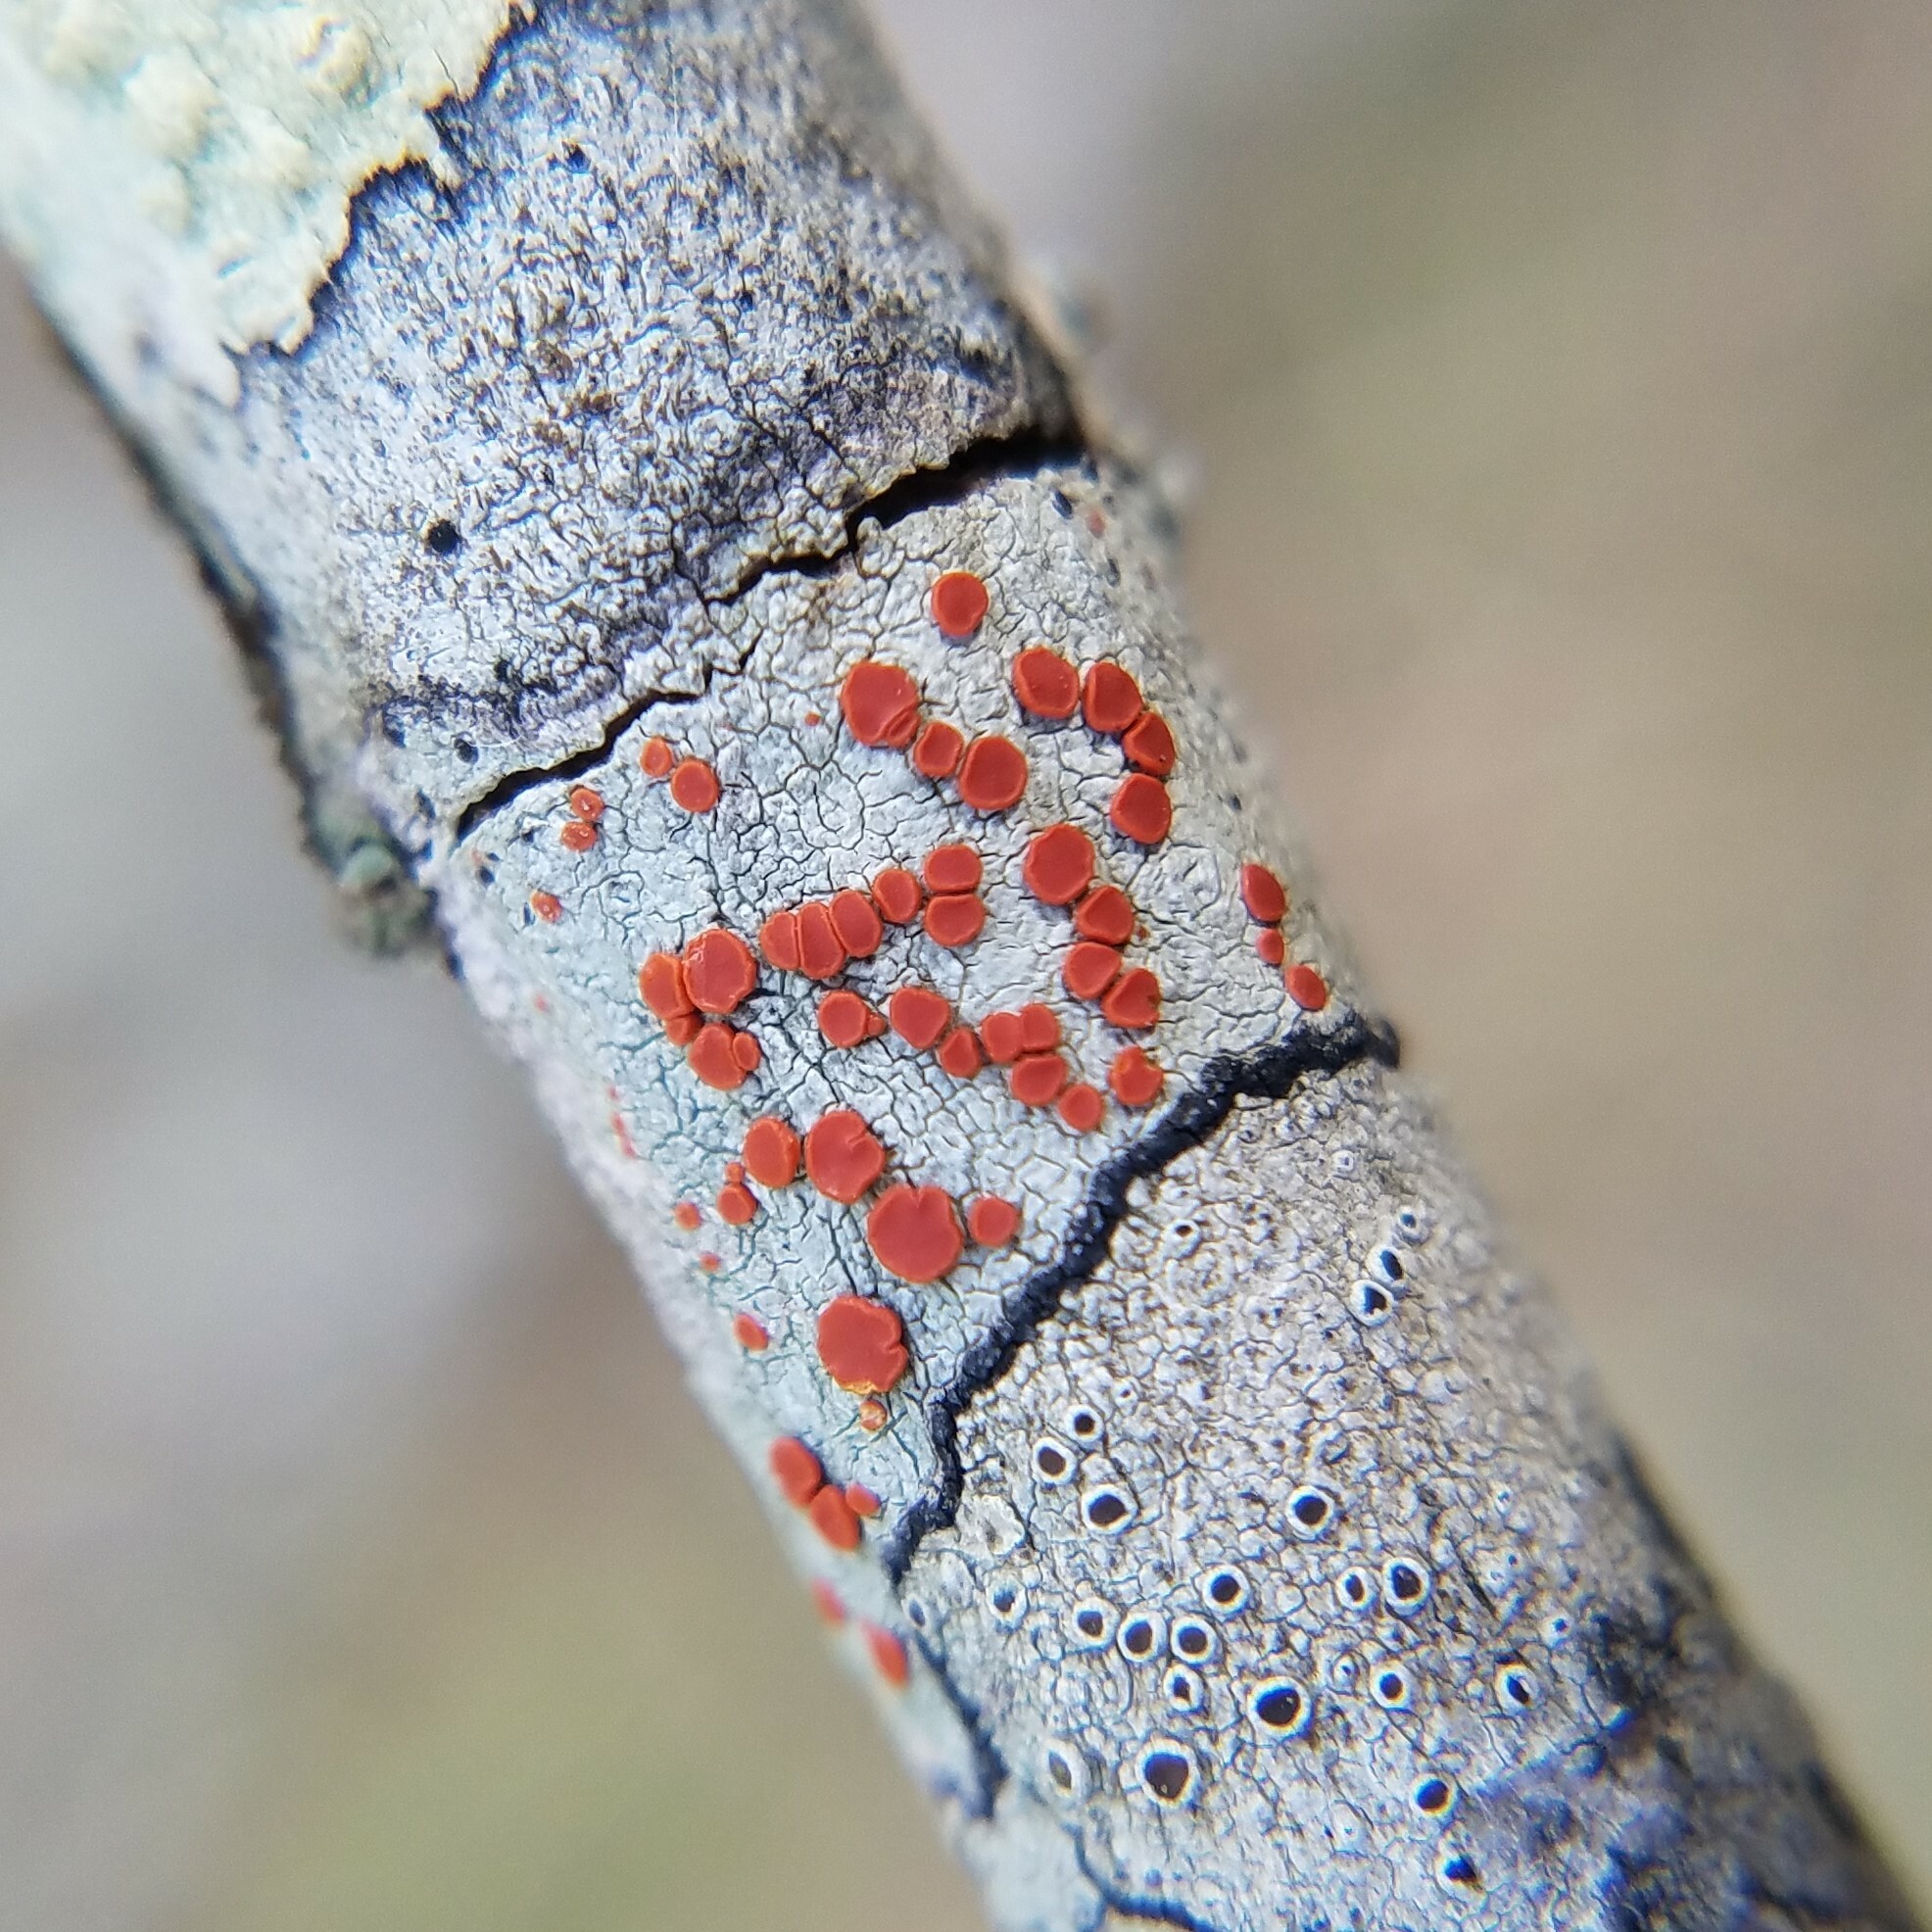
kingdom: Fungi
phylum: Ascomycota
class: Lecanoromycetes
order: Lecanorales
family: Ramboldiaceae
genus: Ramboldia
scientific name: Ramboldia russula
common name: Red heads
